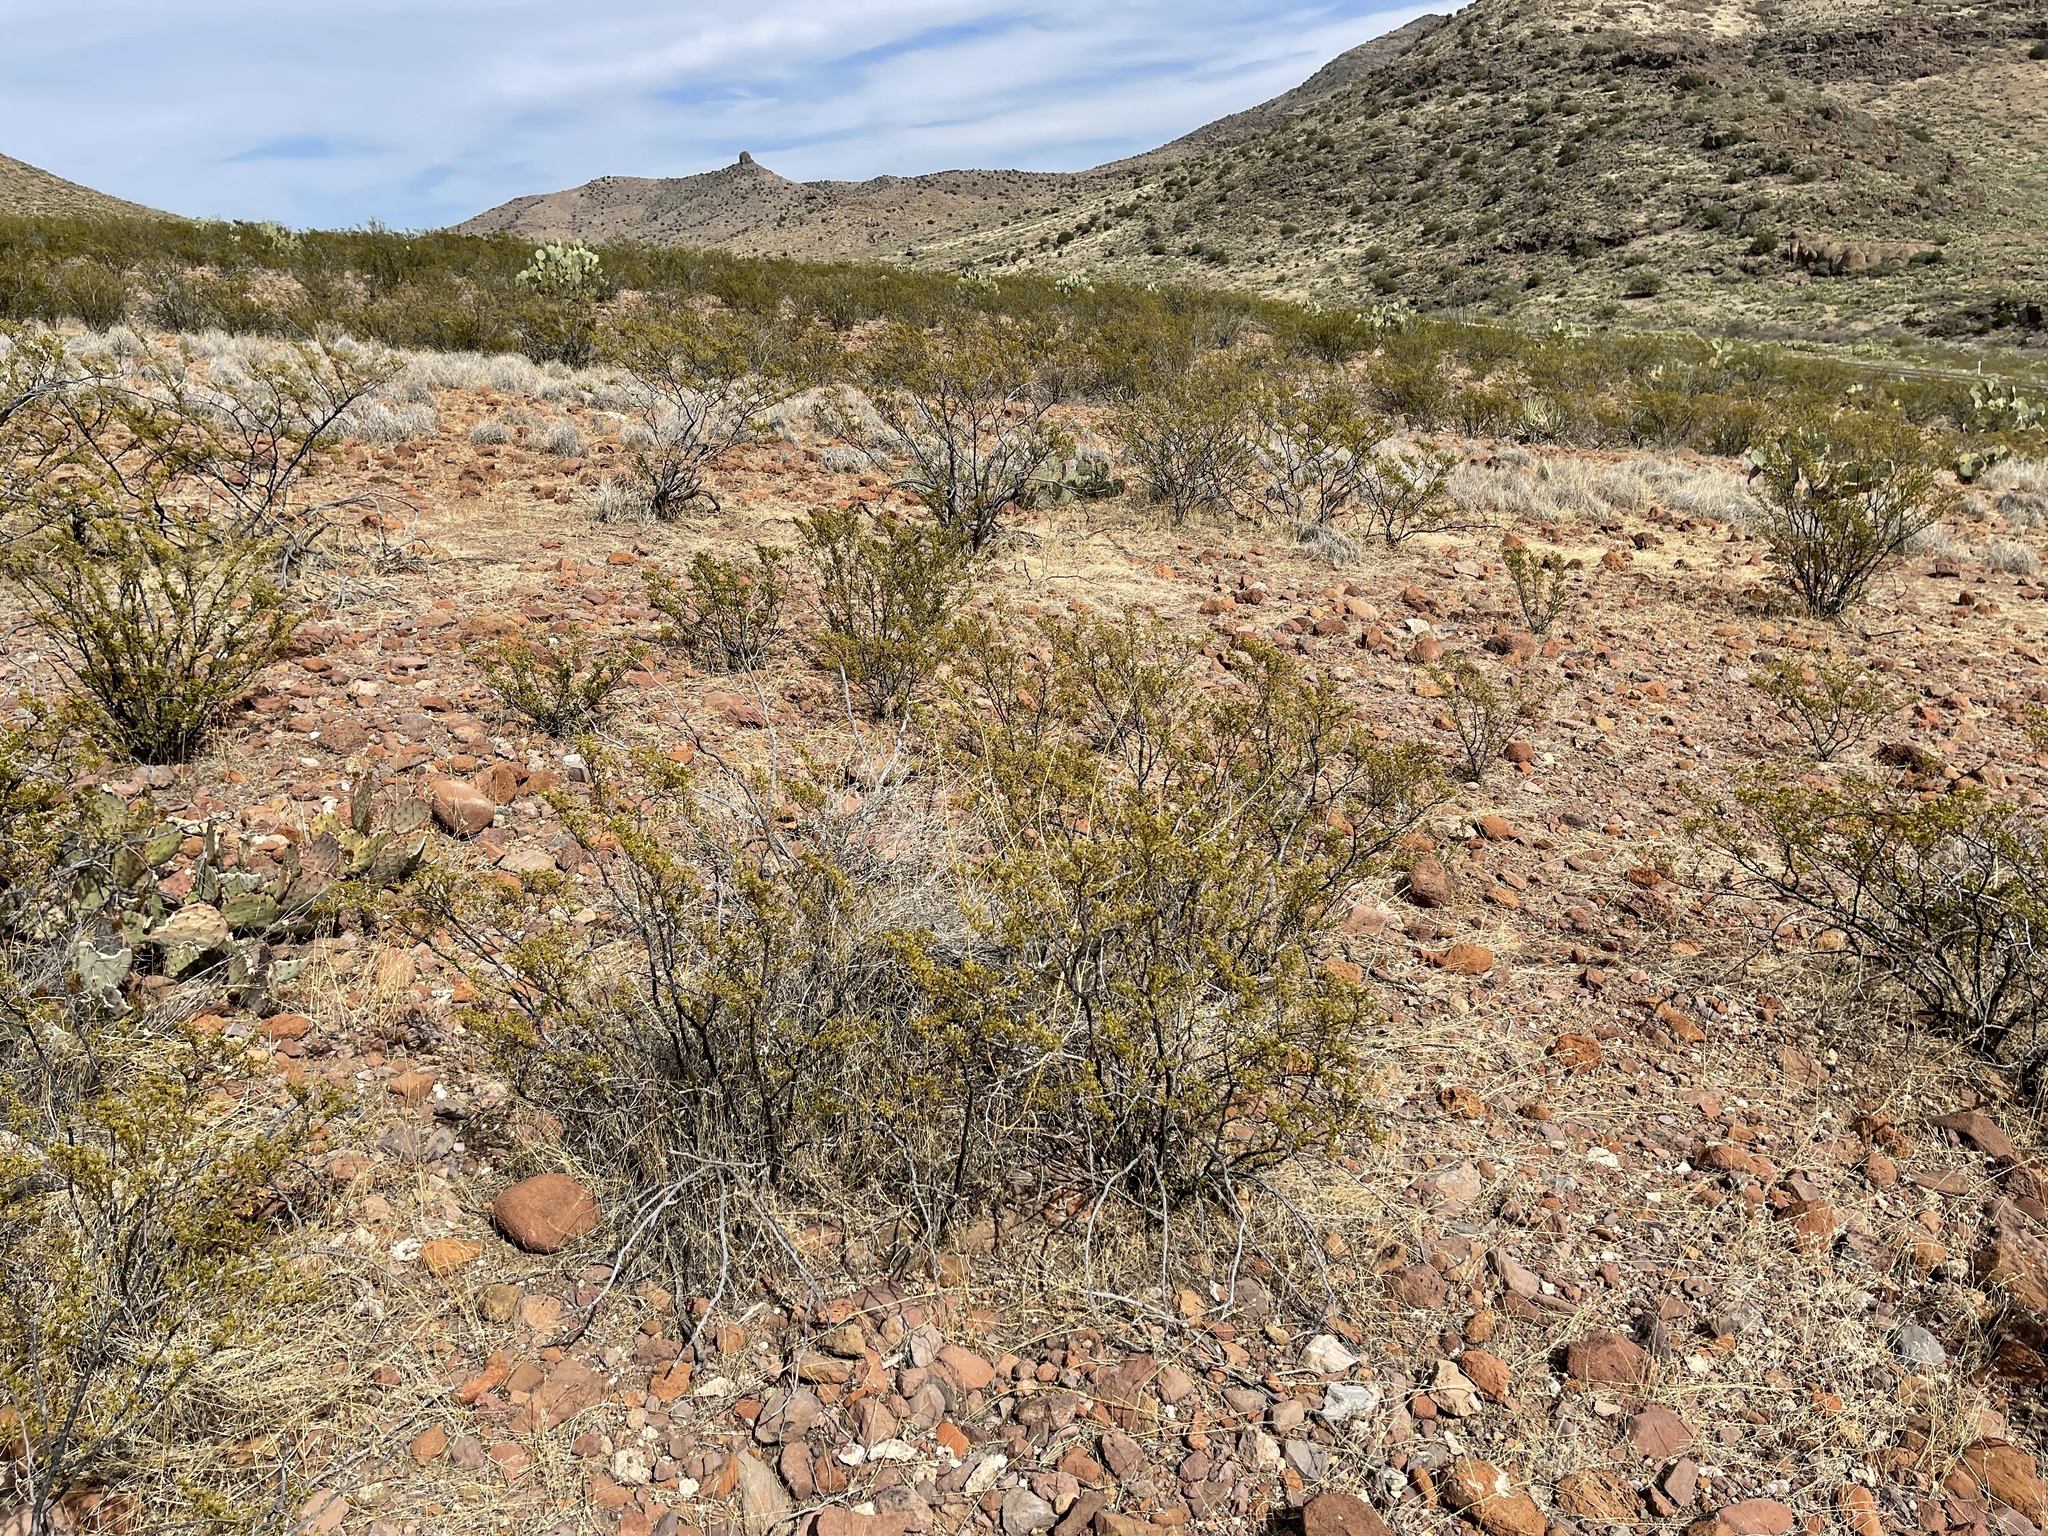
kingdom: Plantae
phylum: Tracheophyta
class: Magnoliopsida
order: Zygophyllales
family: Zygophyllaceae
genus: Larrea
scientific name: Larrea tridentata
